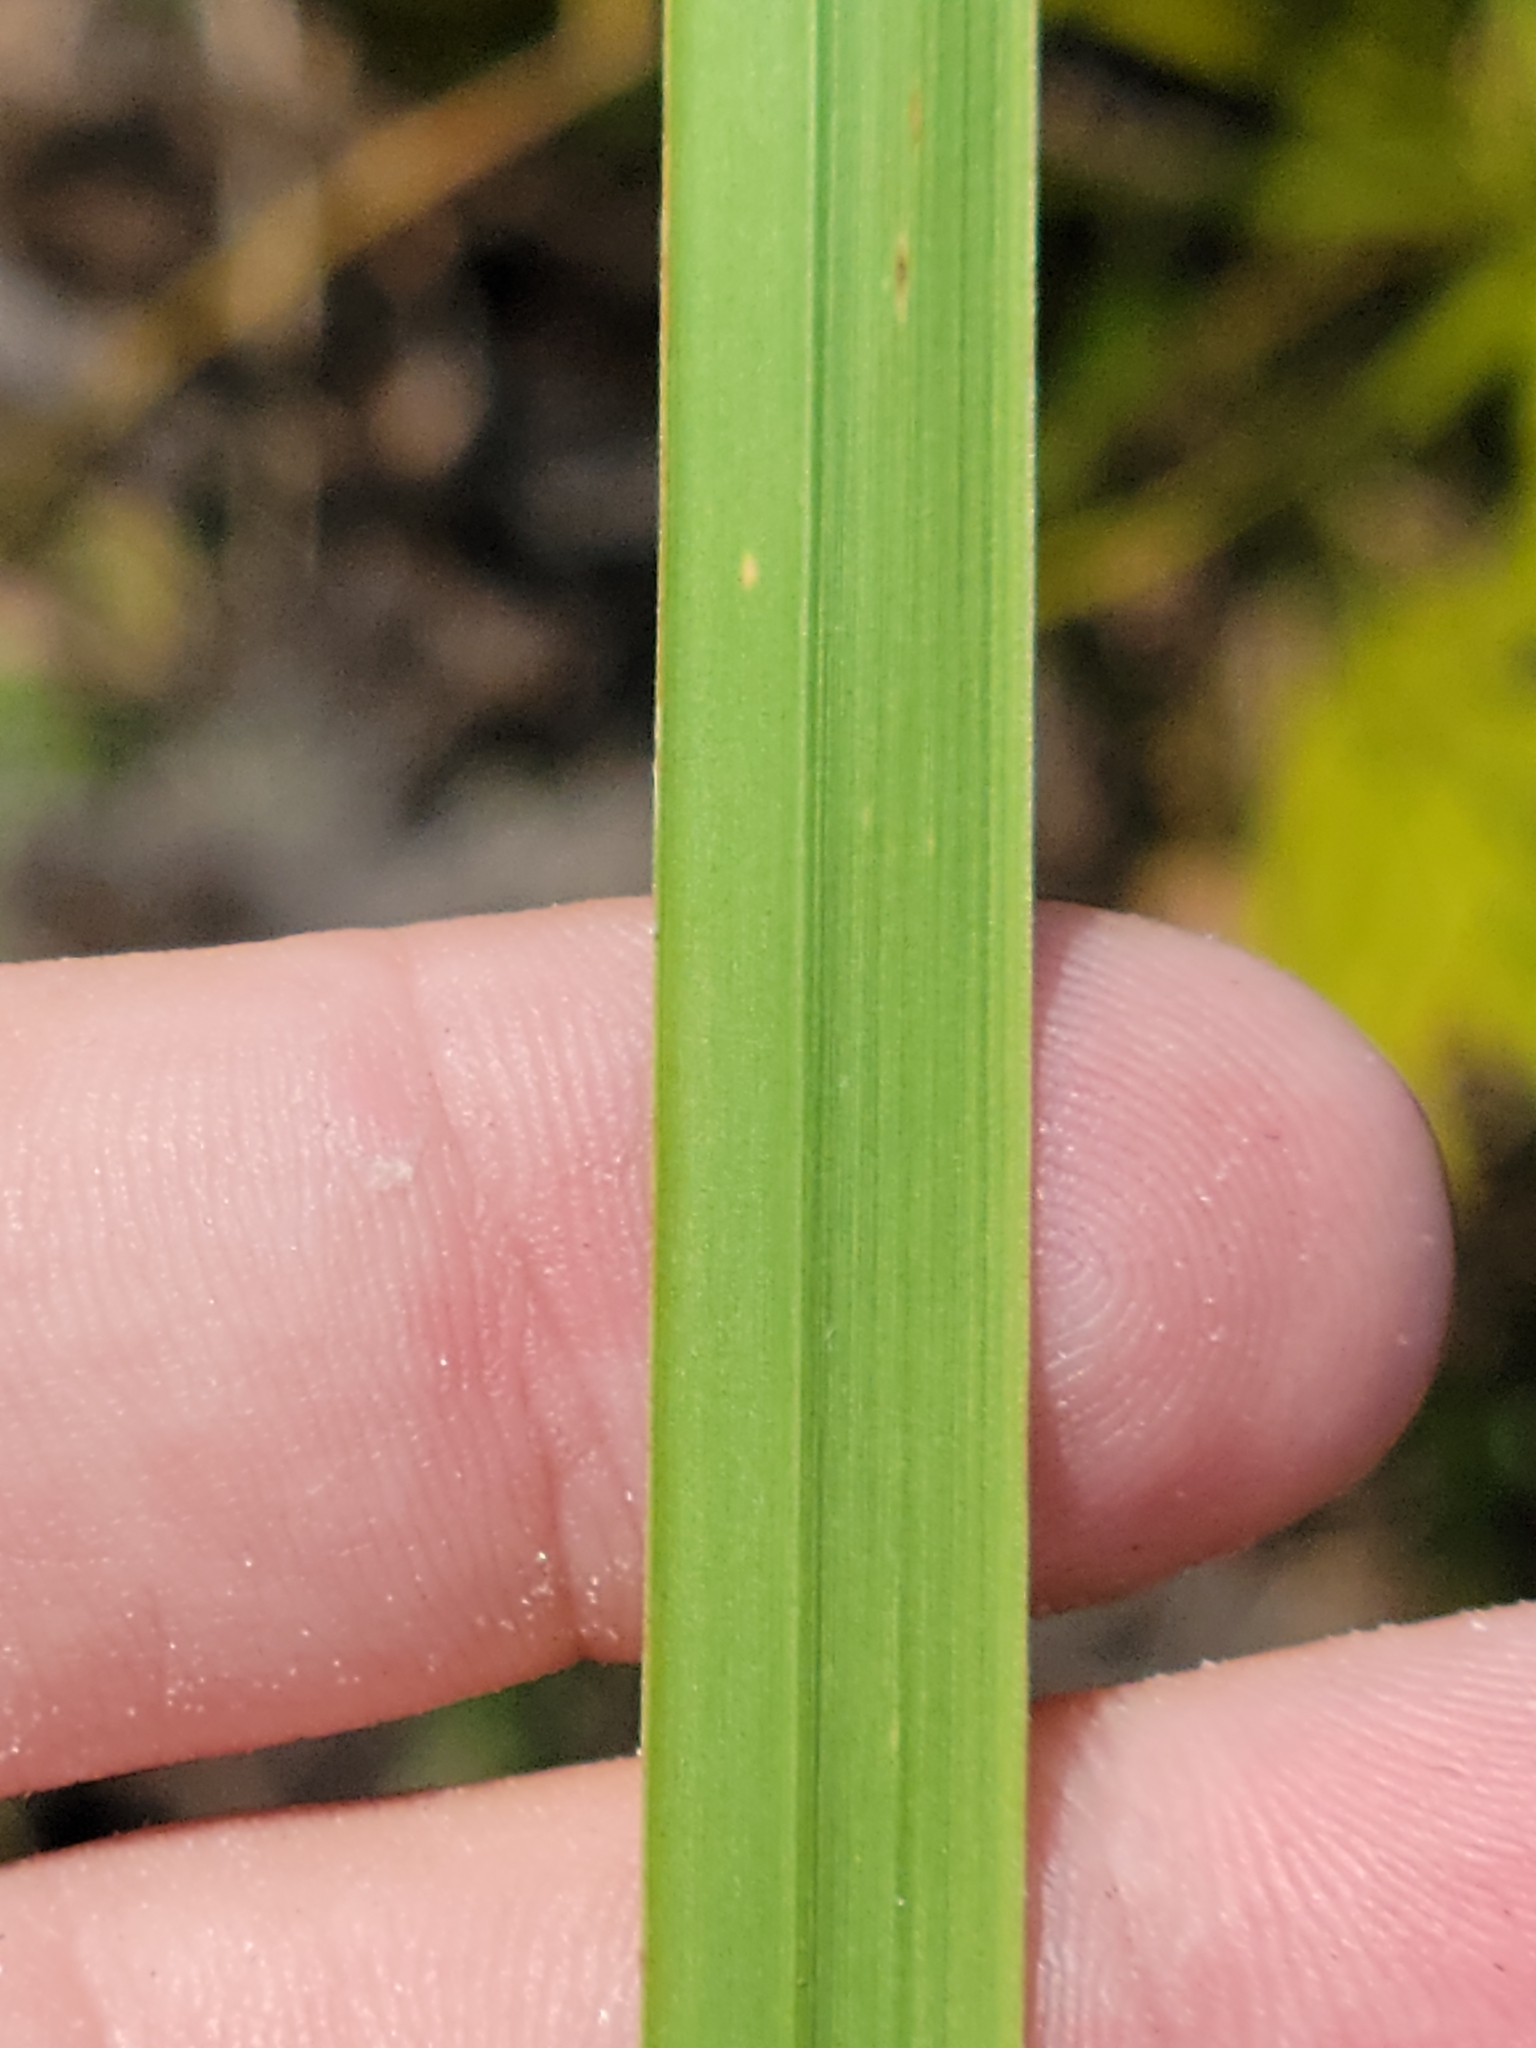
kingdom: Plantae
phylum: Tracheophyta
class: Liliopsida
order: Poales
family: Poaceae
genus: Imperata
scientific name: Imperata cylindrica
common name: Cogongrass
